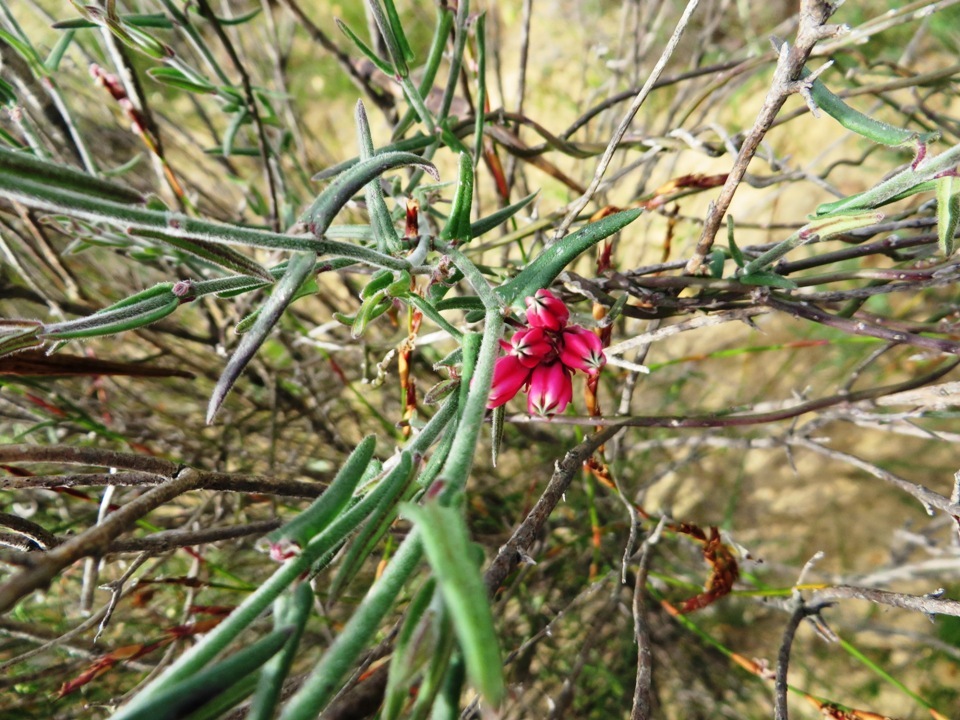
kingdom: Plantae
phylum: Tracheophyta
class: Magnoliopsida
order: Gentianales
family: Apocynaceae
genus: Microloma
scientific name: Microloma sagittatum
